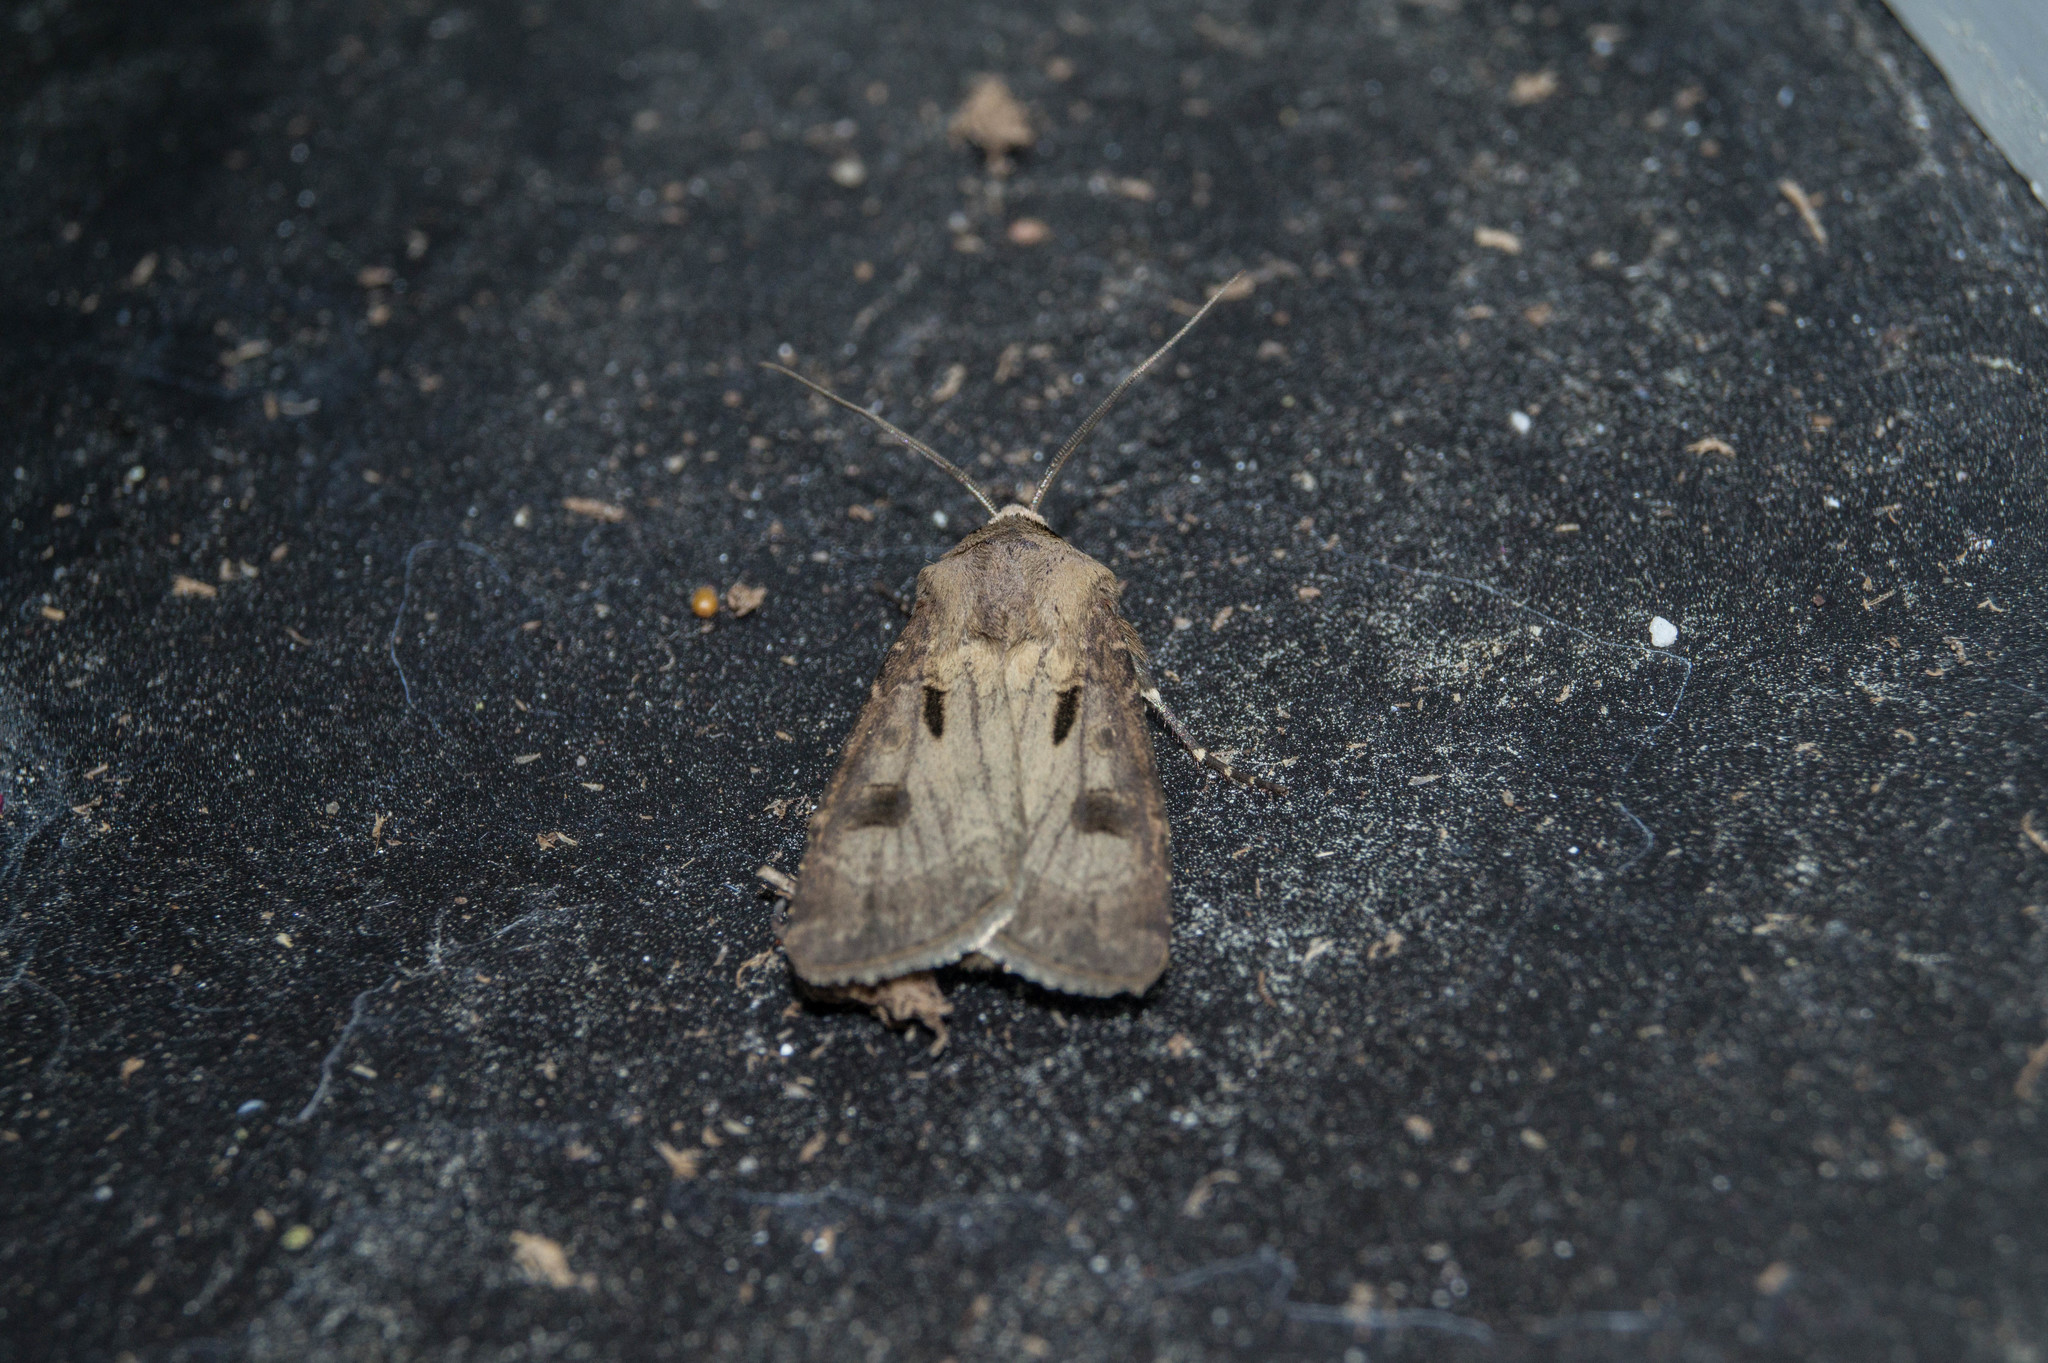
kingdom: Animalia
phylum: Arthropoda
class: Insecta
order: Lepidoptera
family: Noctuidae
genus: Agrotis
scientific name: Agrotis exclamationis
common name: Heart and dart
